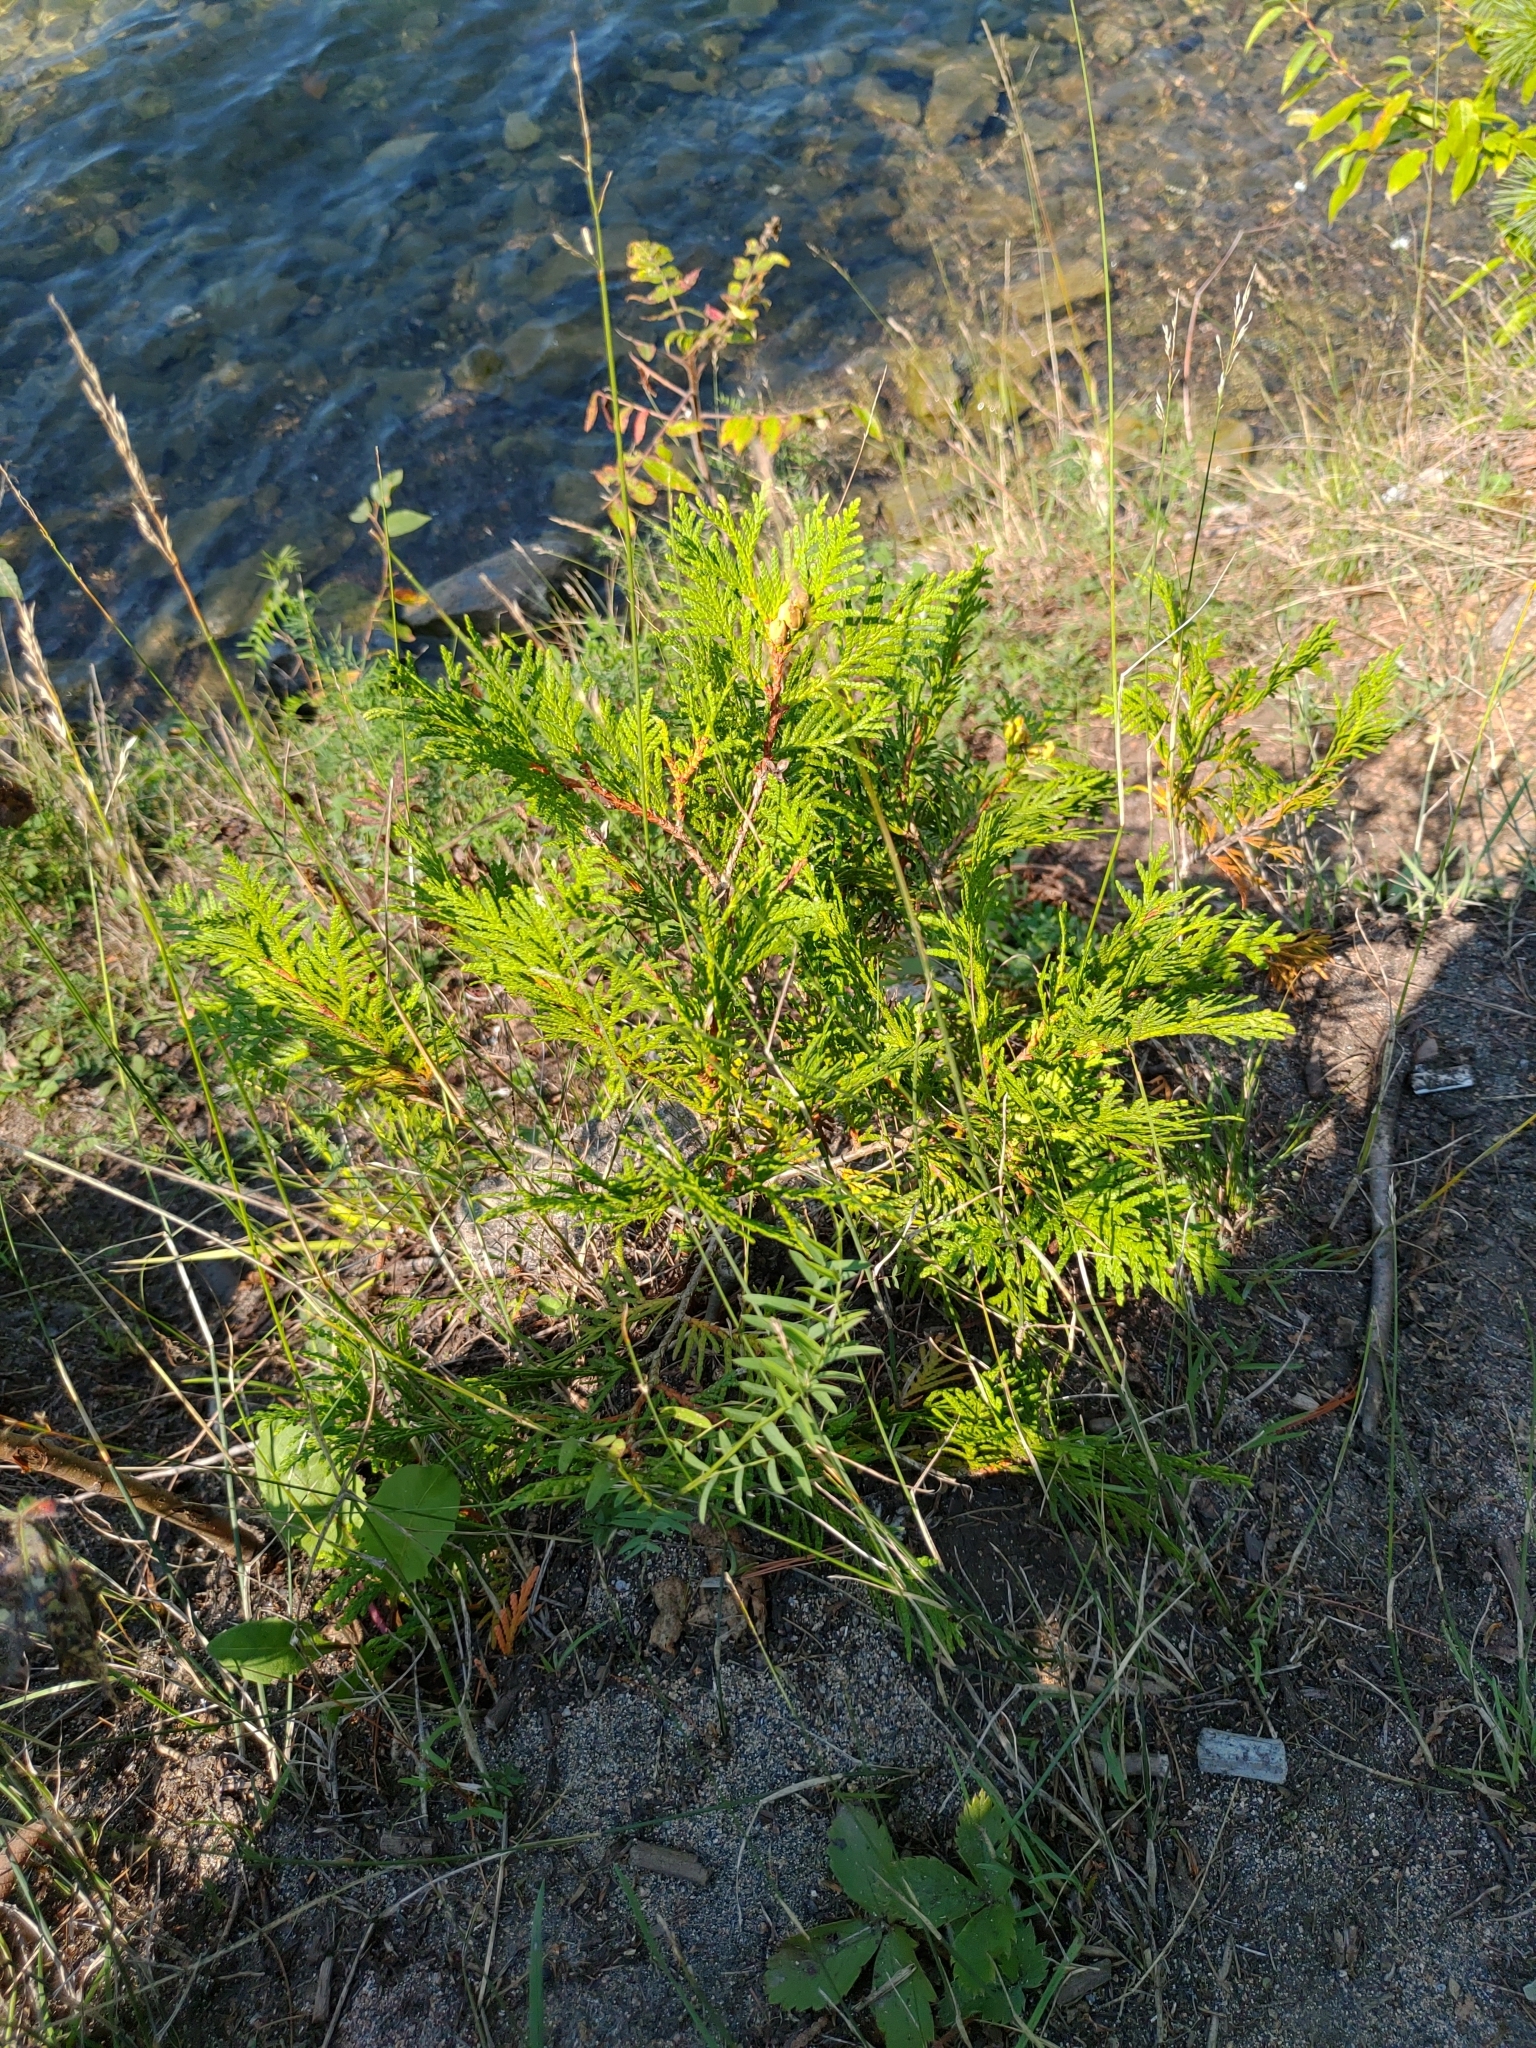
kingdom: Plantae
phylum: Tracheophyta
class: Pinopsida
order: Pinales
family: Cupressaceae
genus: Thuja
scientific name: Thuja occidentalis
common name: Northern white-cedar
